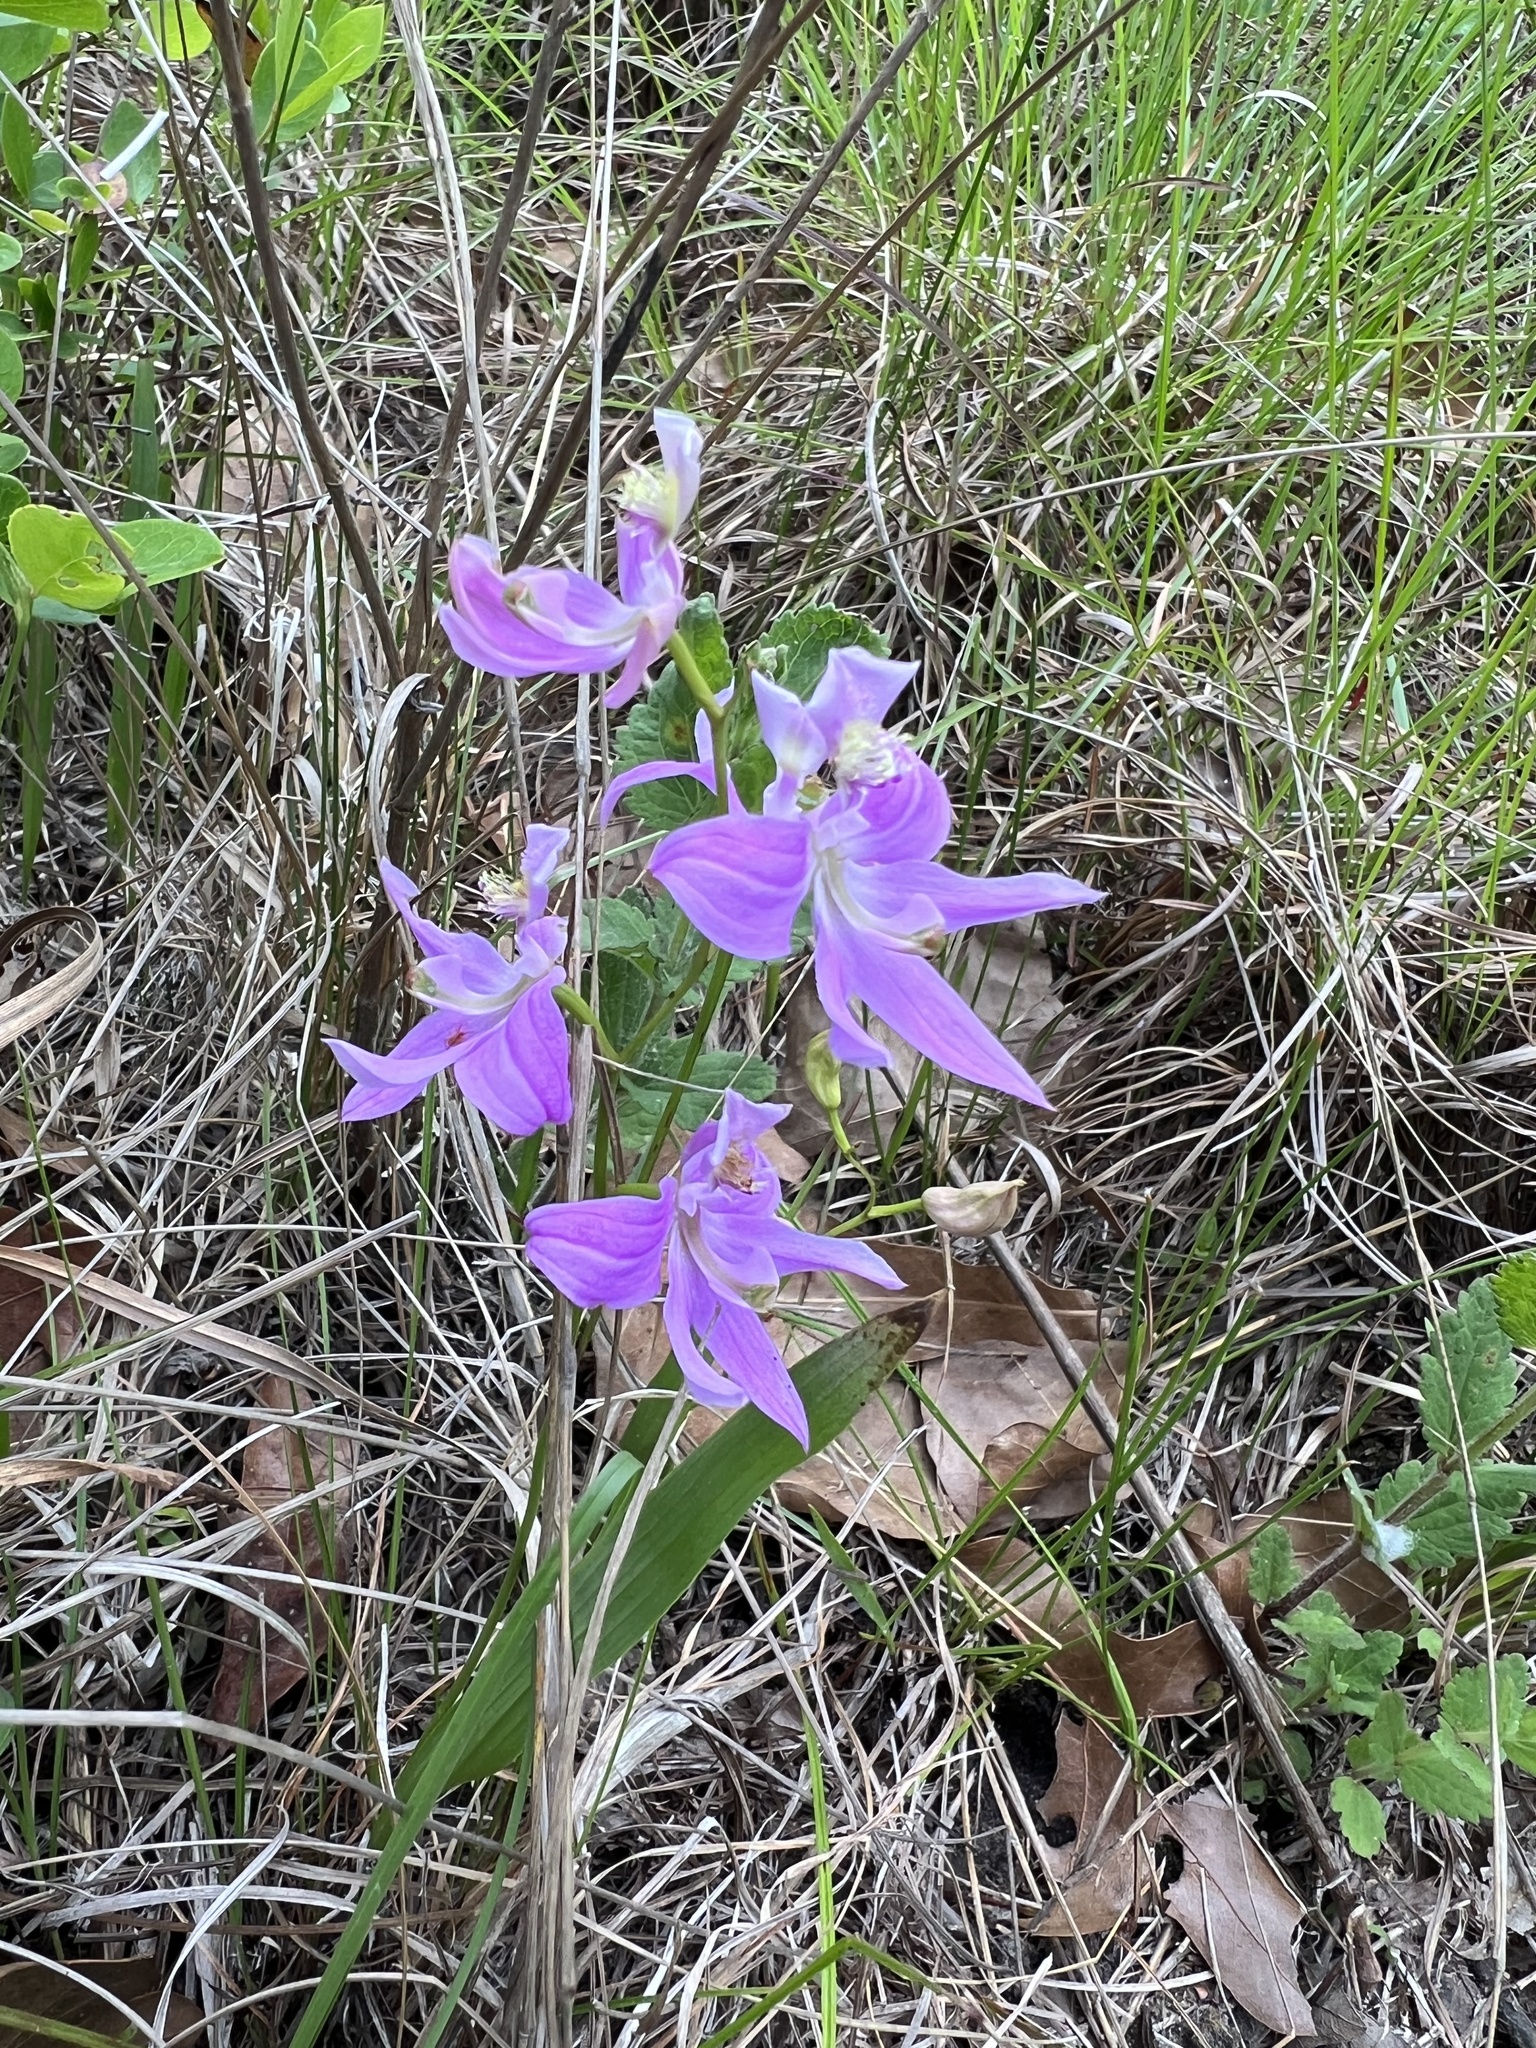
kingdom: Plantae
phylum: Tracheophyta
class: Liliopsida
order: Asparagales
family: Orchidaceae
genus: Calopogon
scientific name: Calopogon oklahomensis
